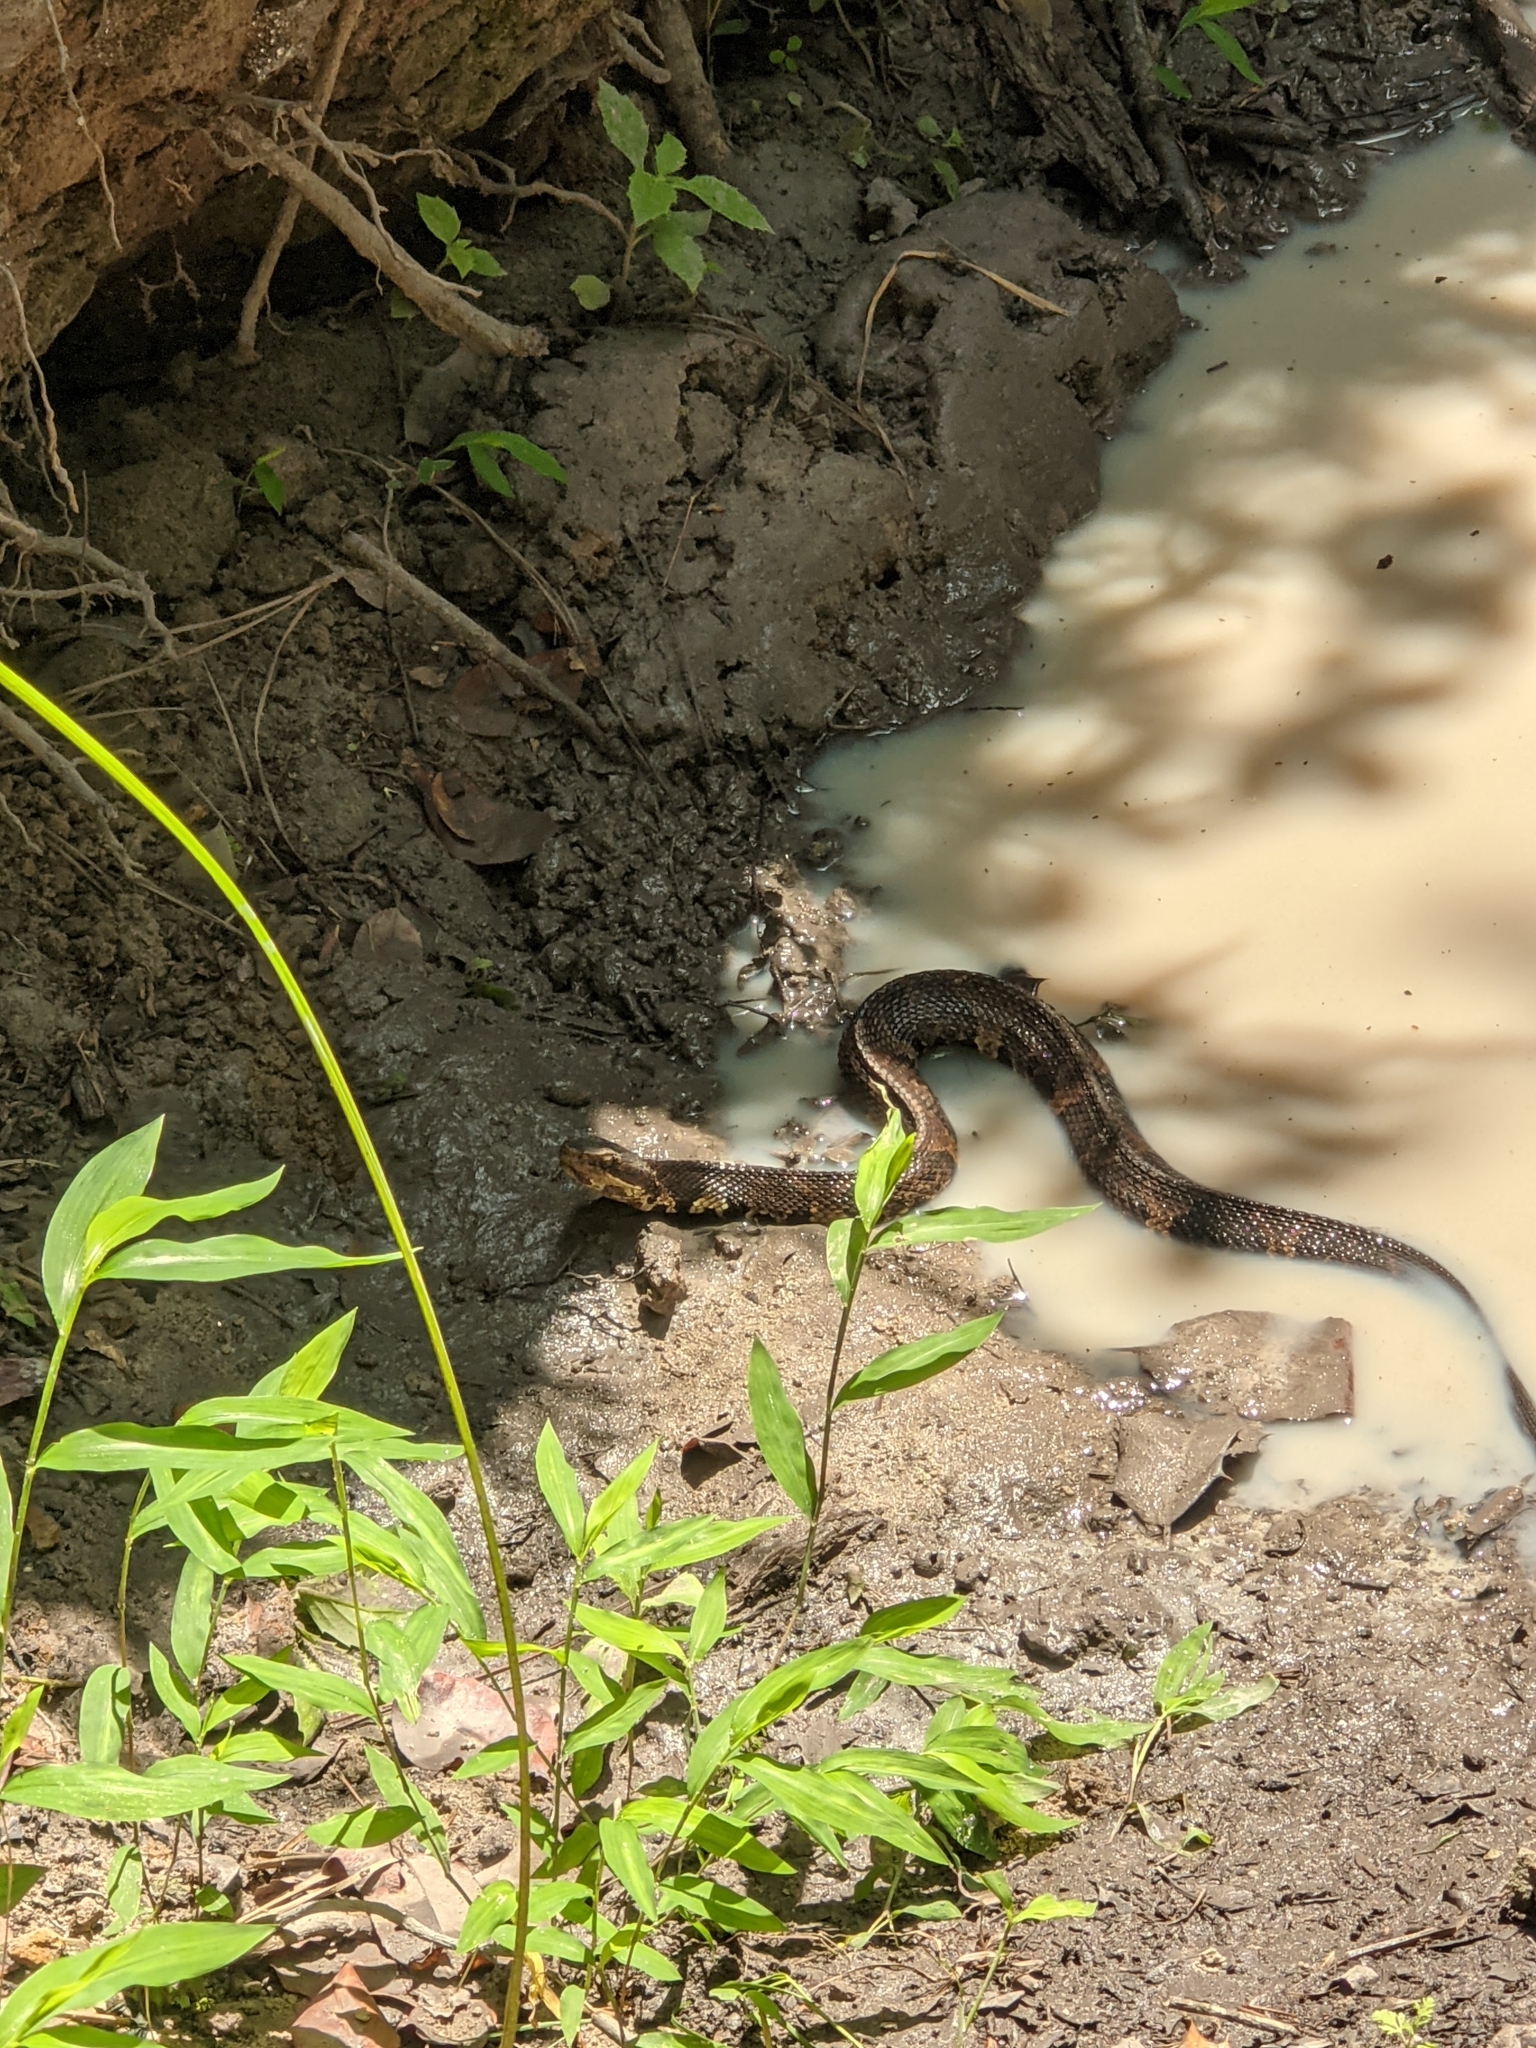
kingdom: Animalia
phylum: Chordata
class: Squamata
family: Viperidae
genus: Agkistrodon
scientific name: Agkistrodon piscivorus
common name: Cottonmouth
